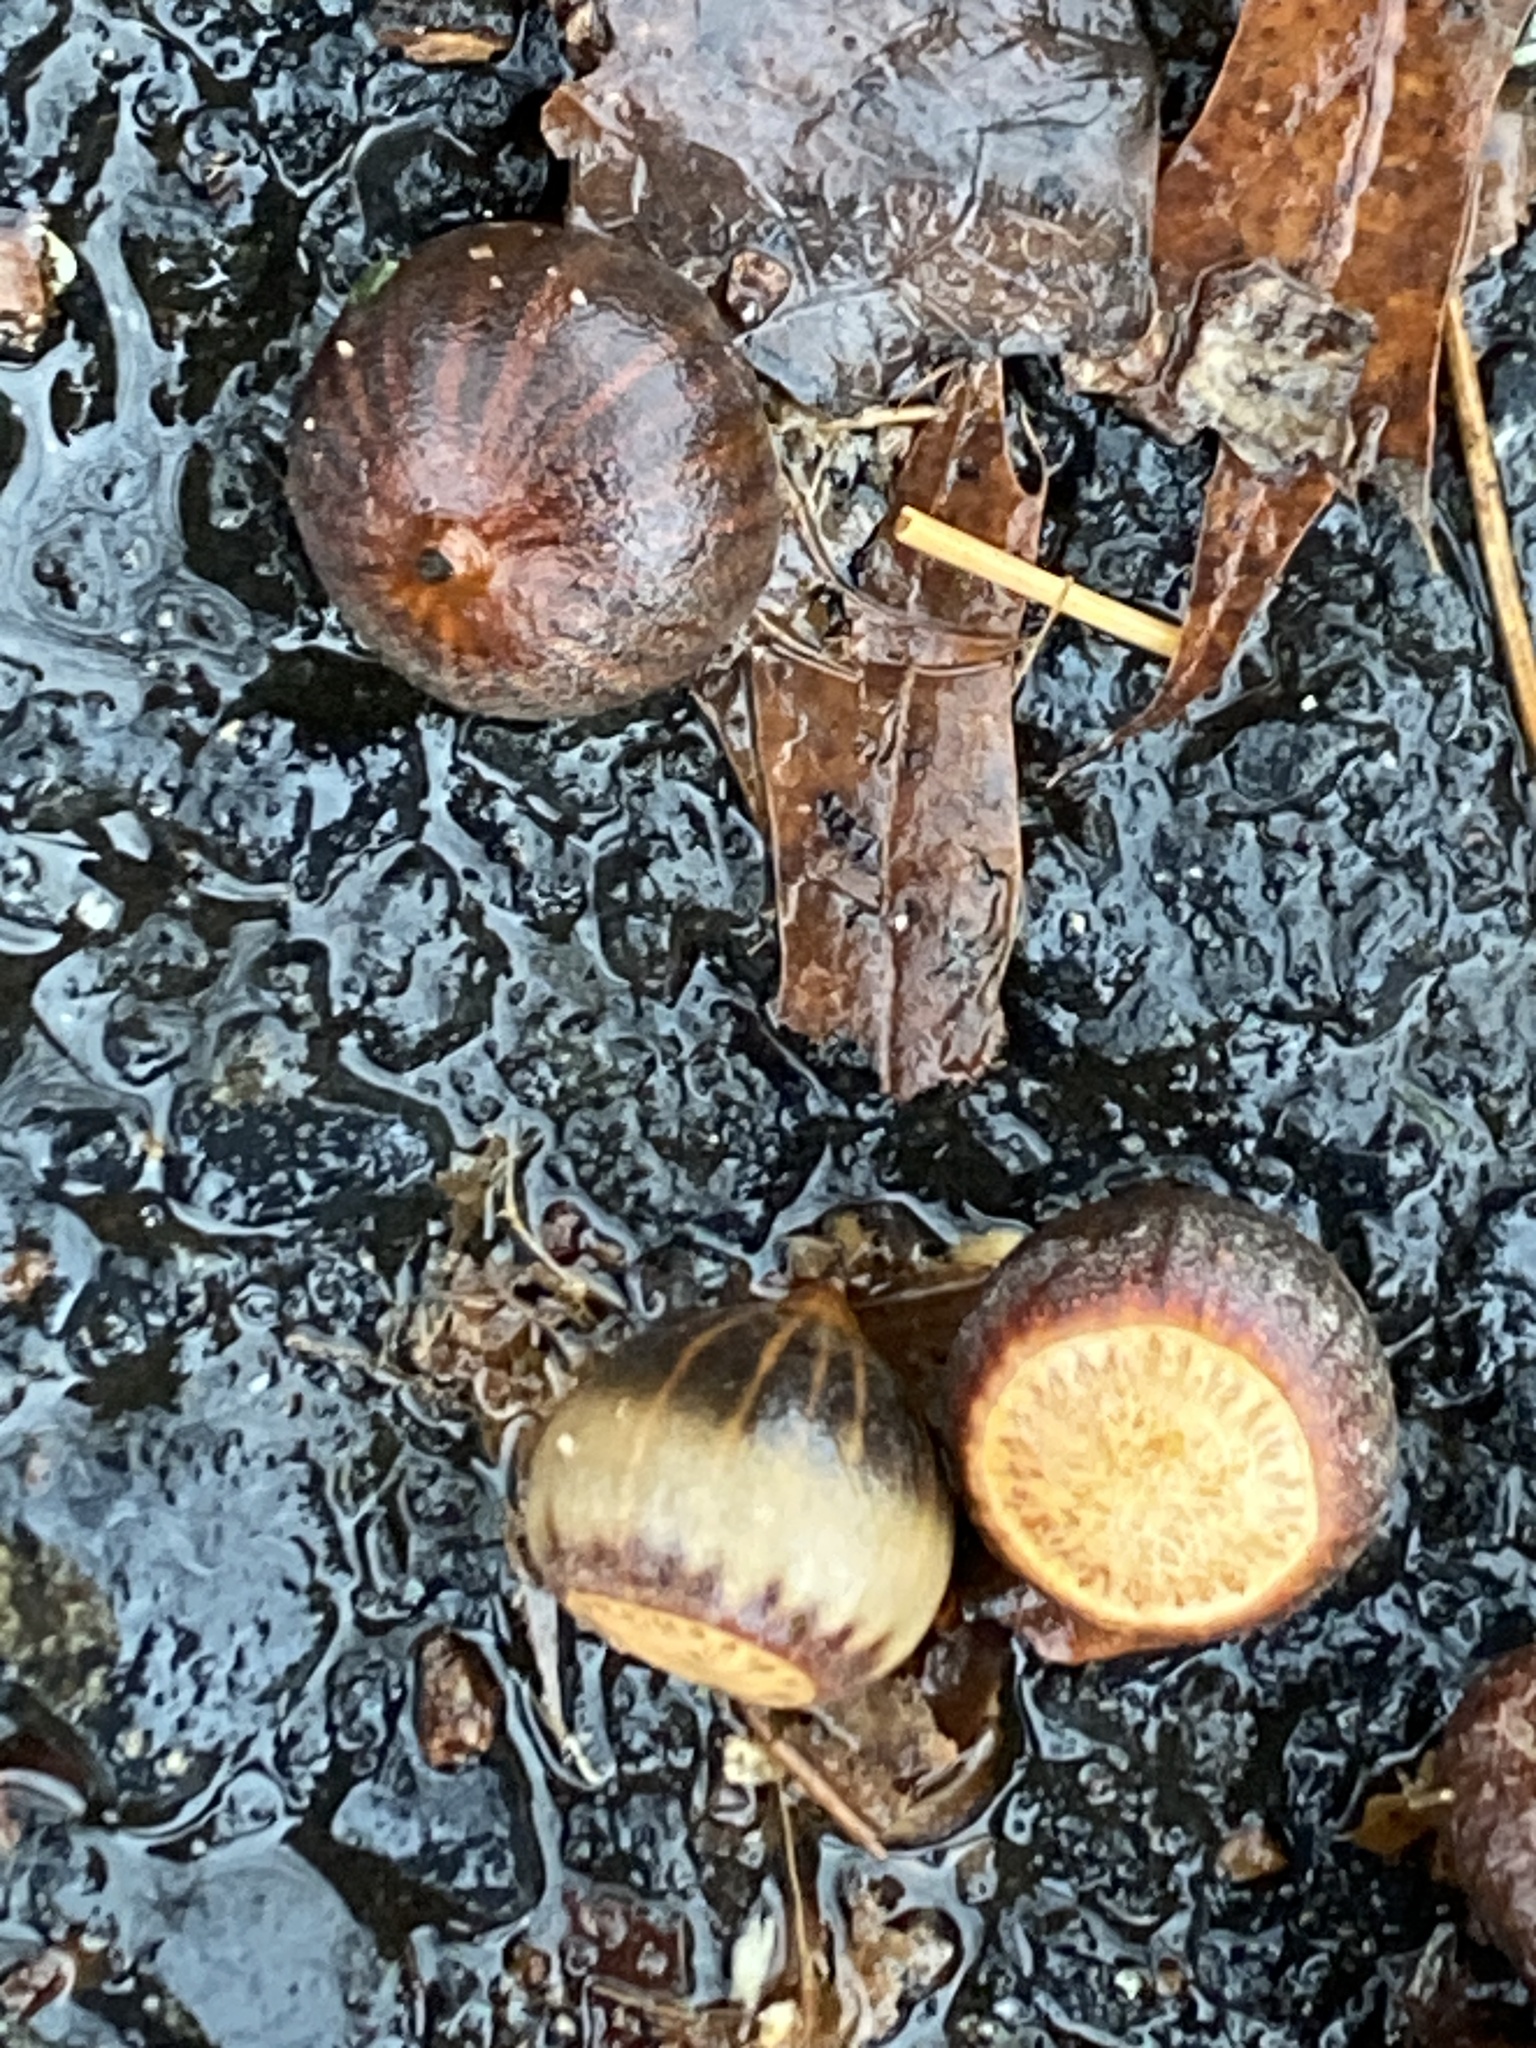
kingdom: Plantae
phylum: Tracheophyta
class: Magnoliopsida
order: Fagales
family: Fagaceae
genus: Quercus
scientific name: Quercus palustris
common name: Pin oak
